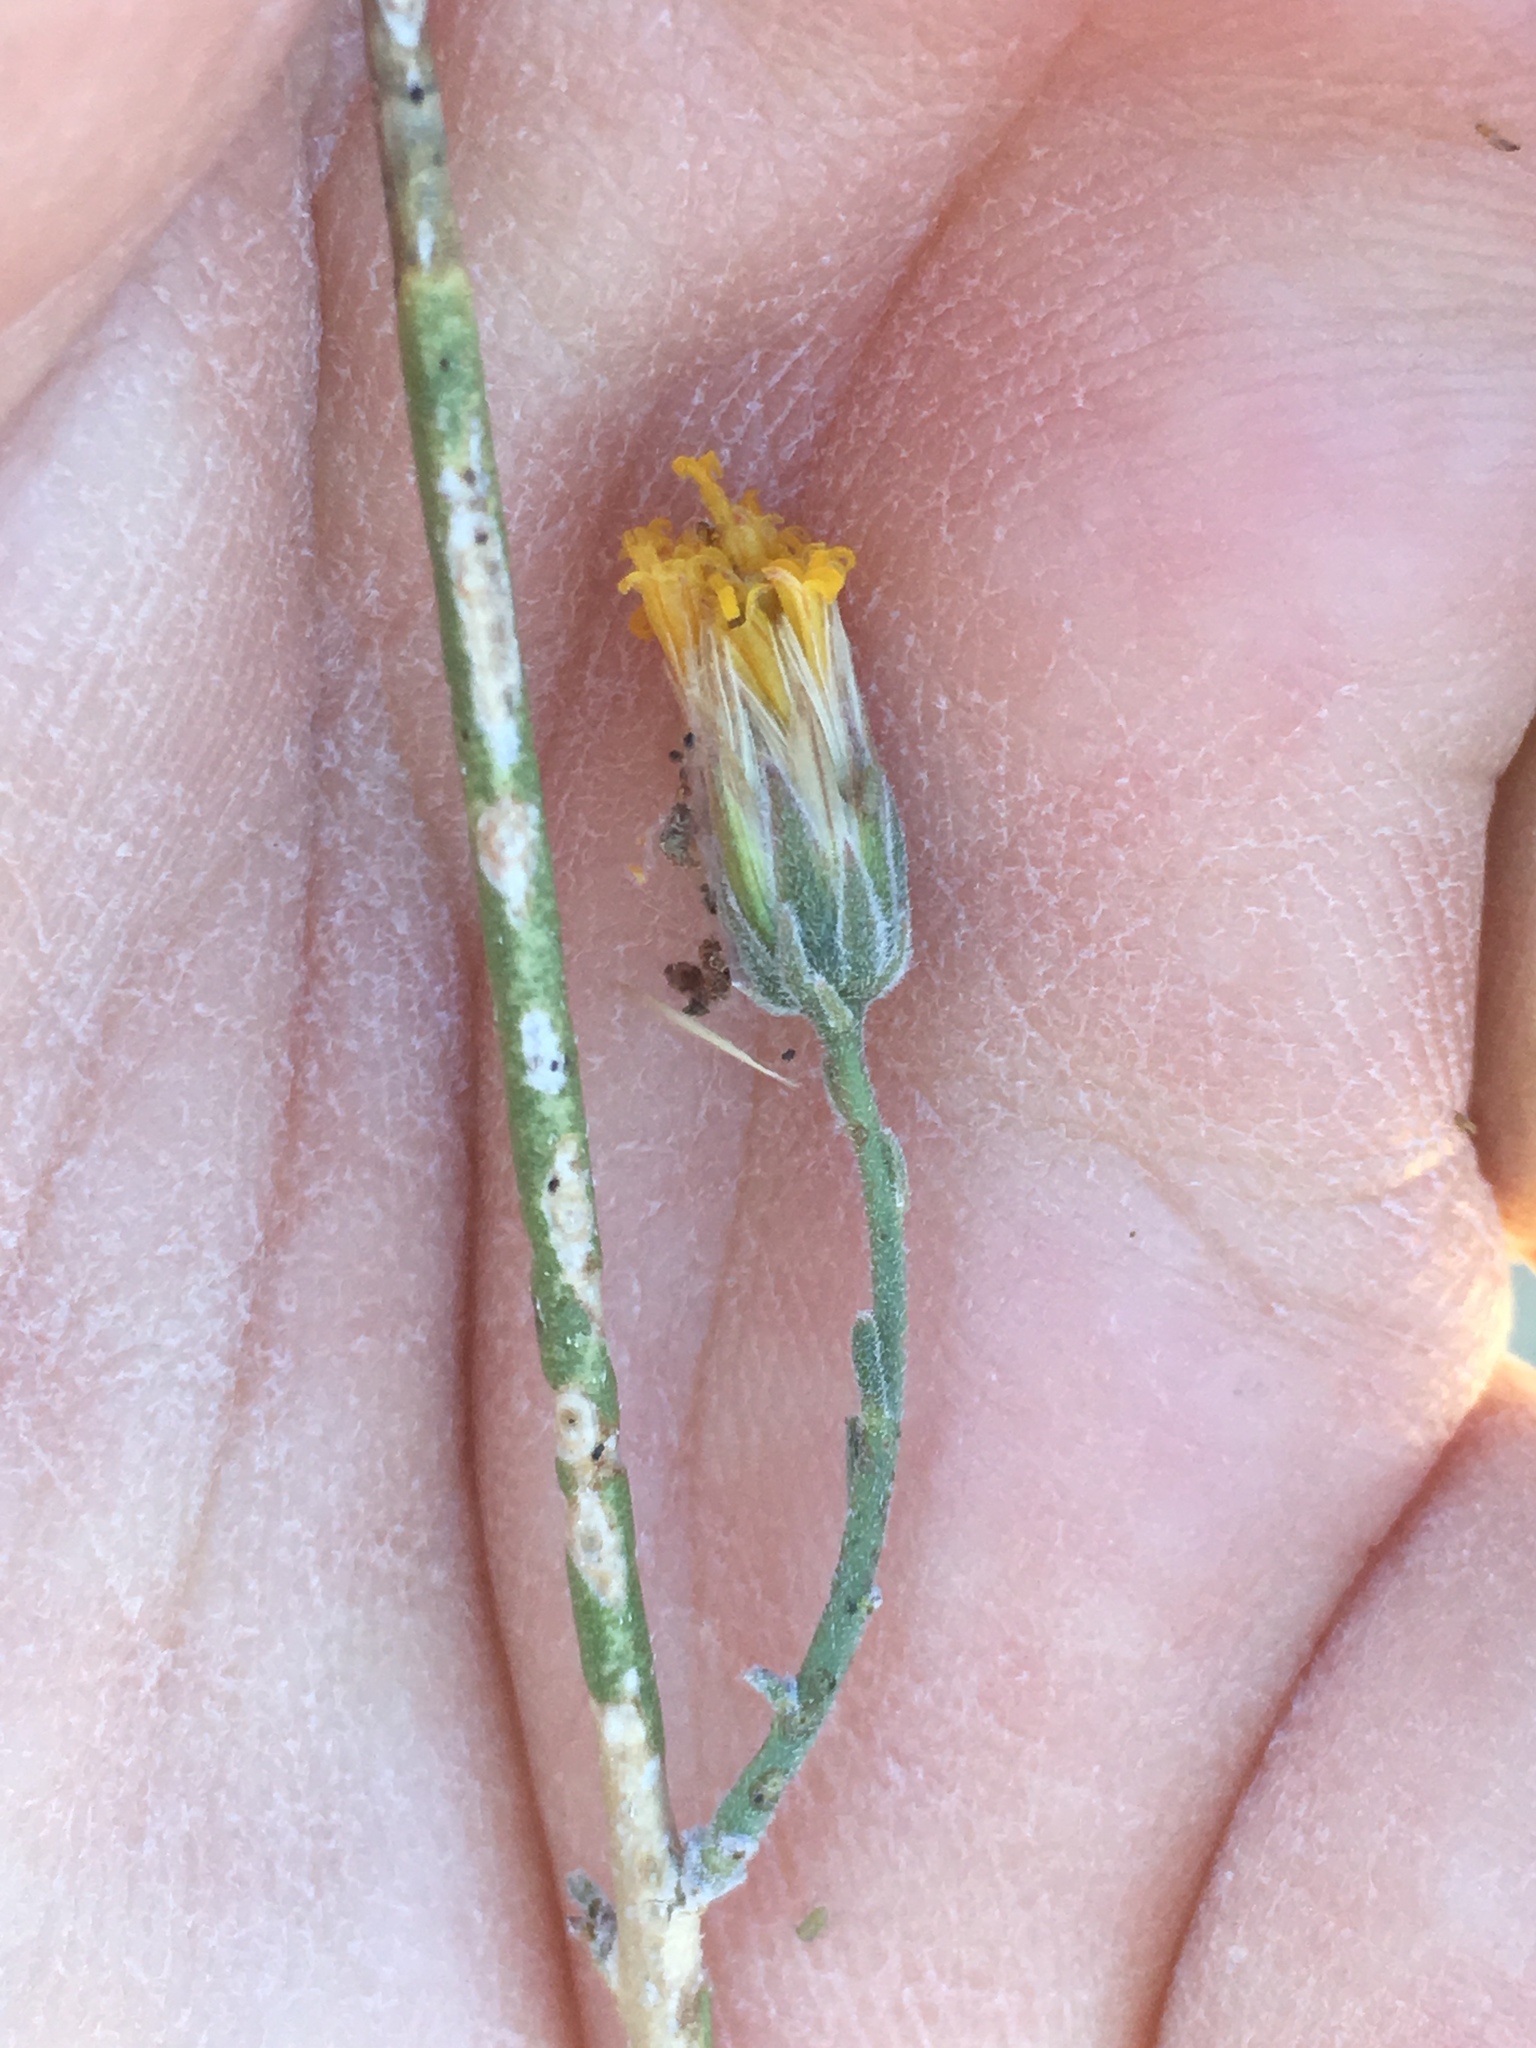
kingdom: Plantae
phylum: Tracheophyta
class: Magnoliopsida
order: Asterales
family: Asteraceae
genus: Bebbia
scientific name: Bebbia juncea
